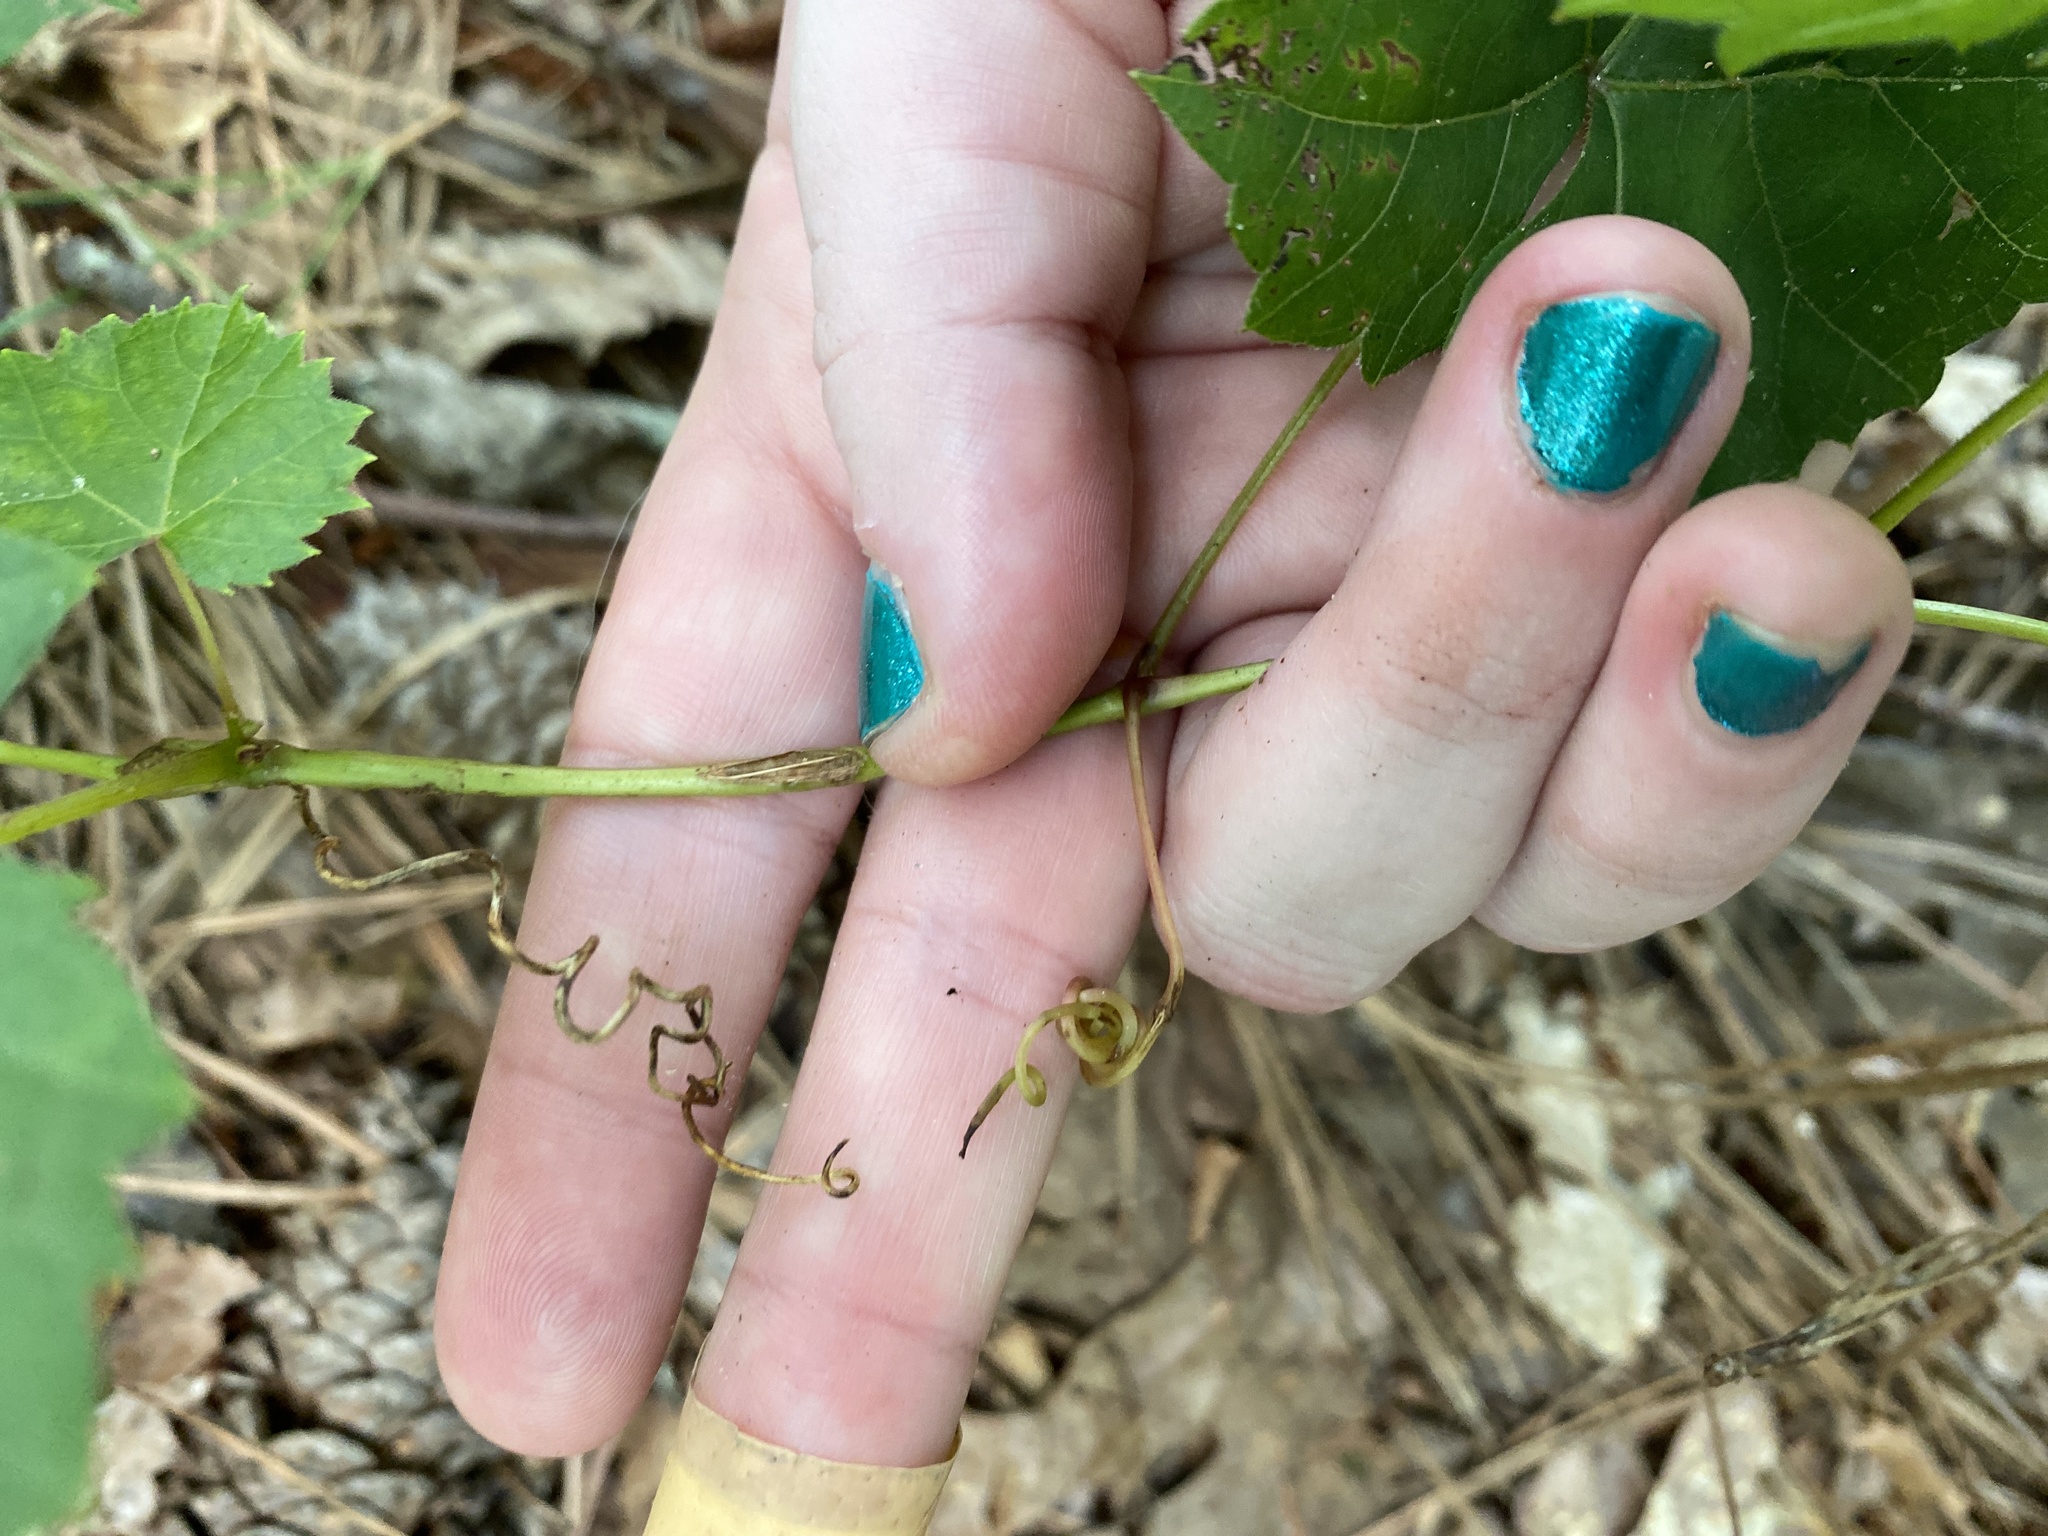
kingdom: Plantae
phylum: Tracheophyta
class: Magnoliopsida
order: Vitales
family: Vitaceae
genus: Vitis
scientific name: Vitis rotundifolia
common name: Muscadine grape
